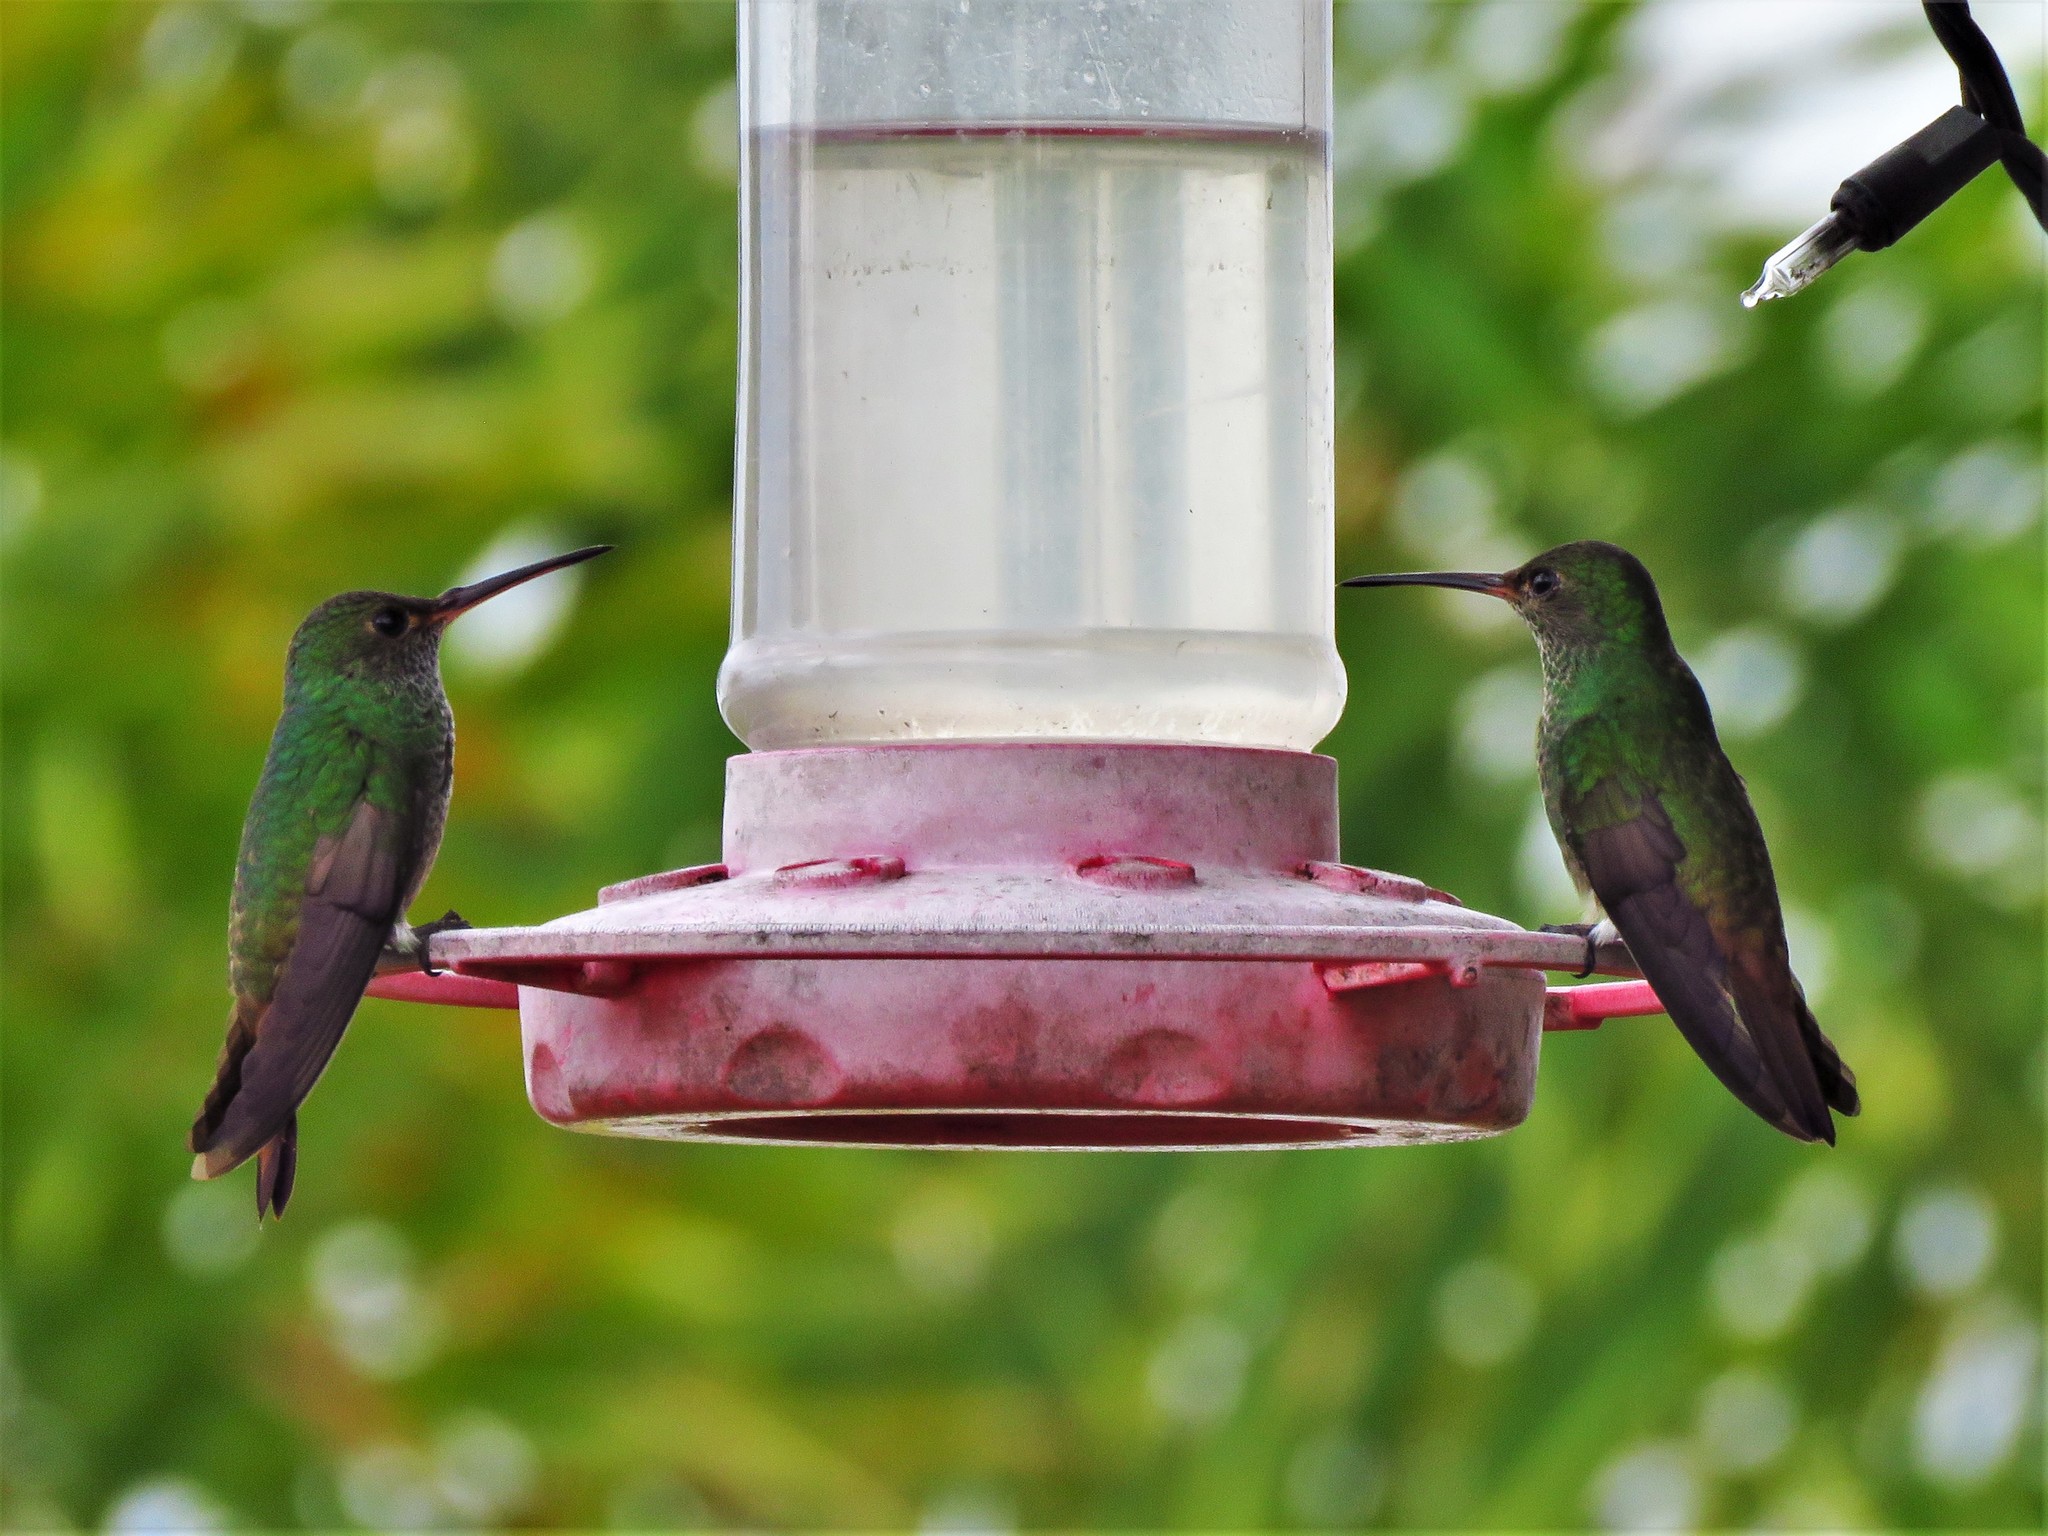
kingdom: Animalia
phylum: Chordata
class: Aves
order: Apodiformes
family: Trochilidae
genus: Amazilia
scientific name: Amazilia tzacatl
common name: Rufous-tailed hummingbird
